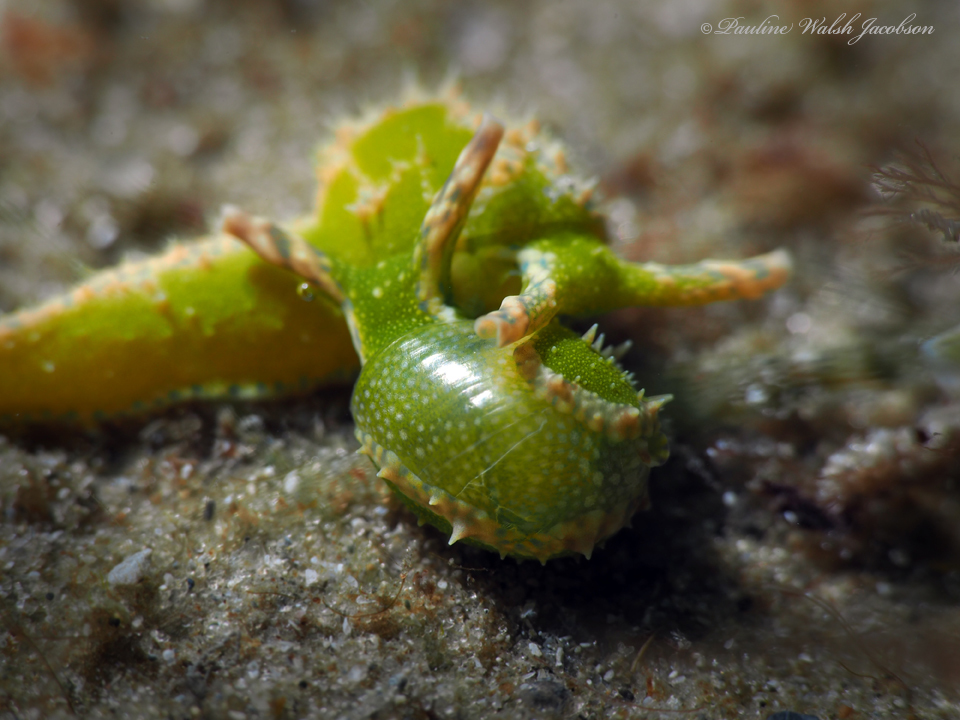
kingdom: Animalia
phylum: Mollusca
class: Gastropoda
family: Oxynoidae
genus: Oxynoe
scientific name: Oxynoe antillarum
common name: Antilles oxynoe
